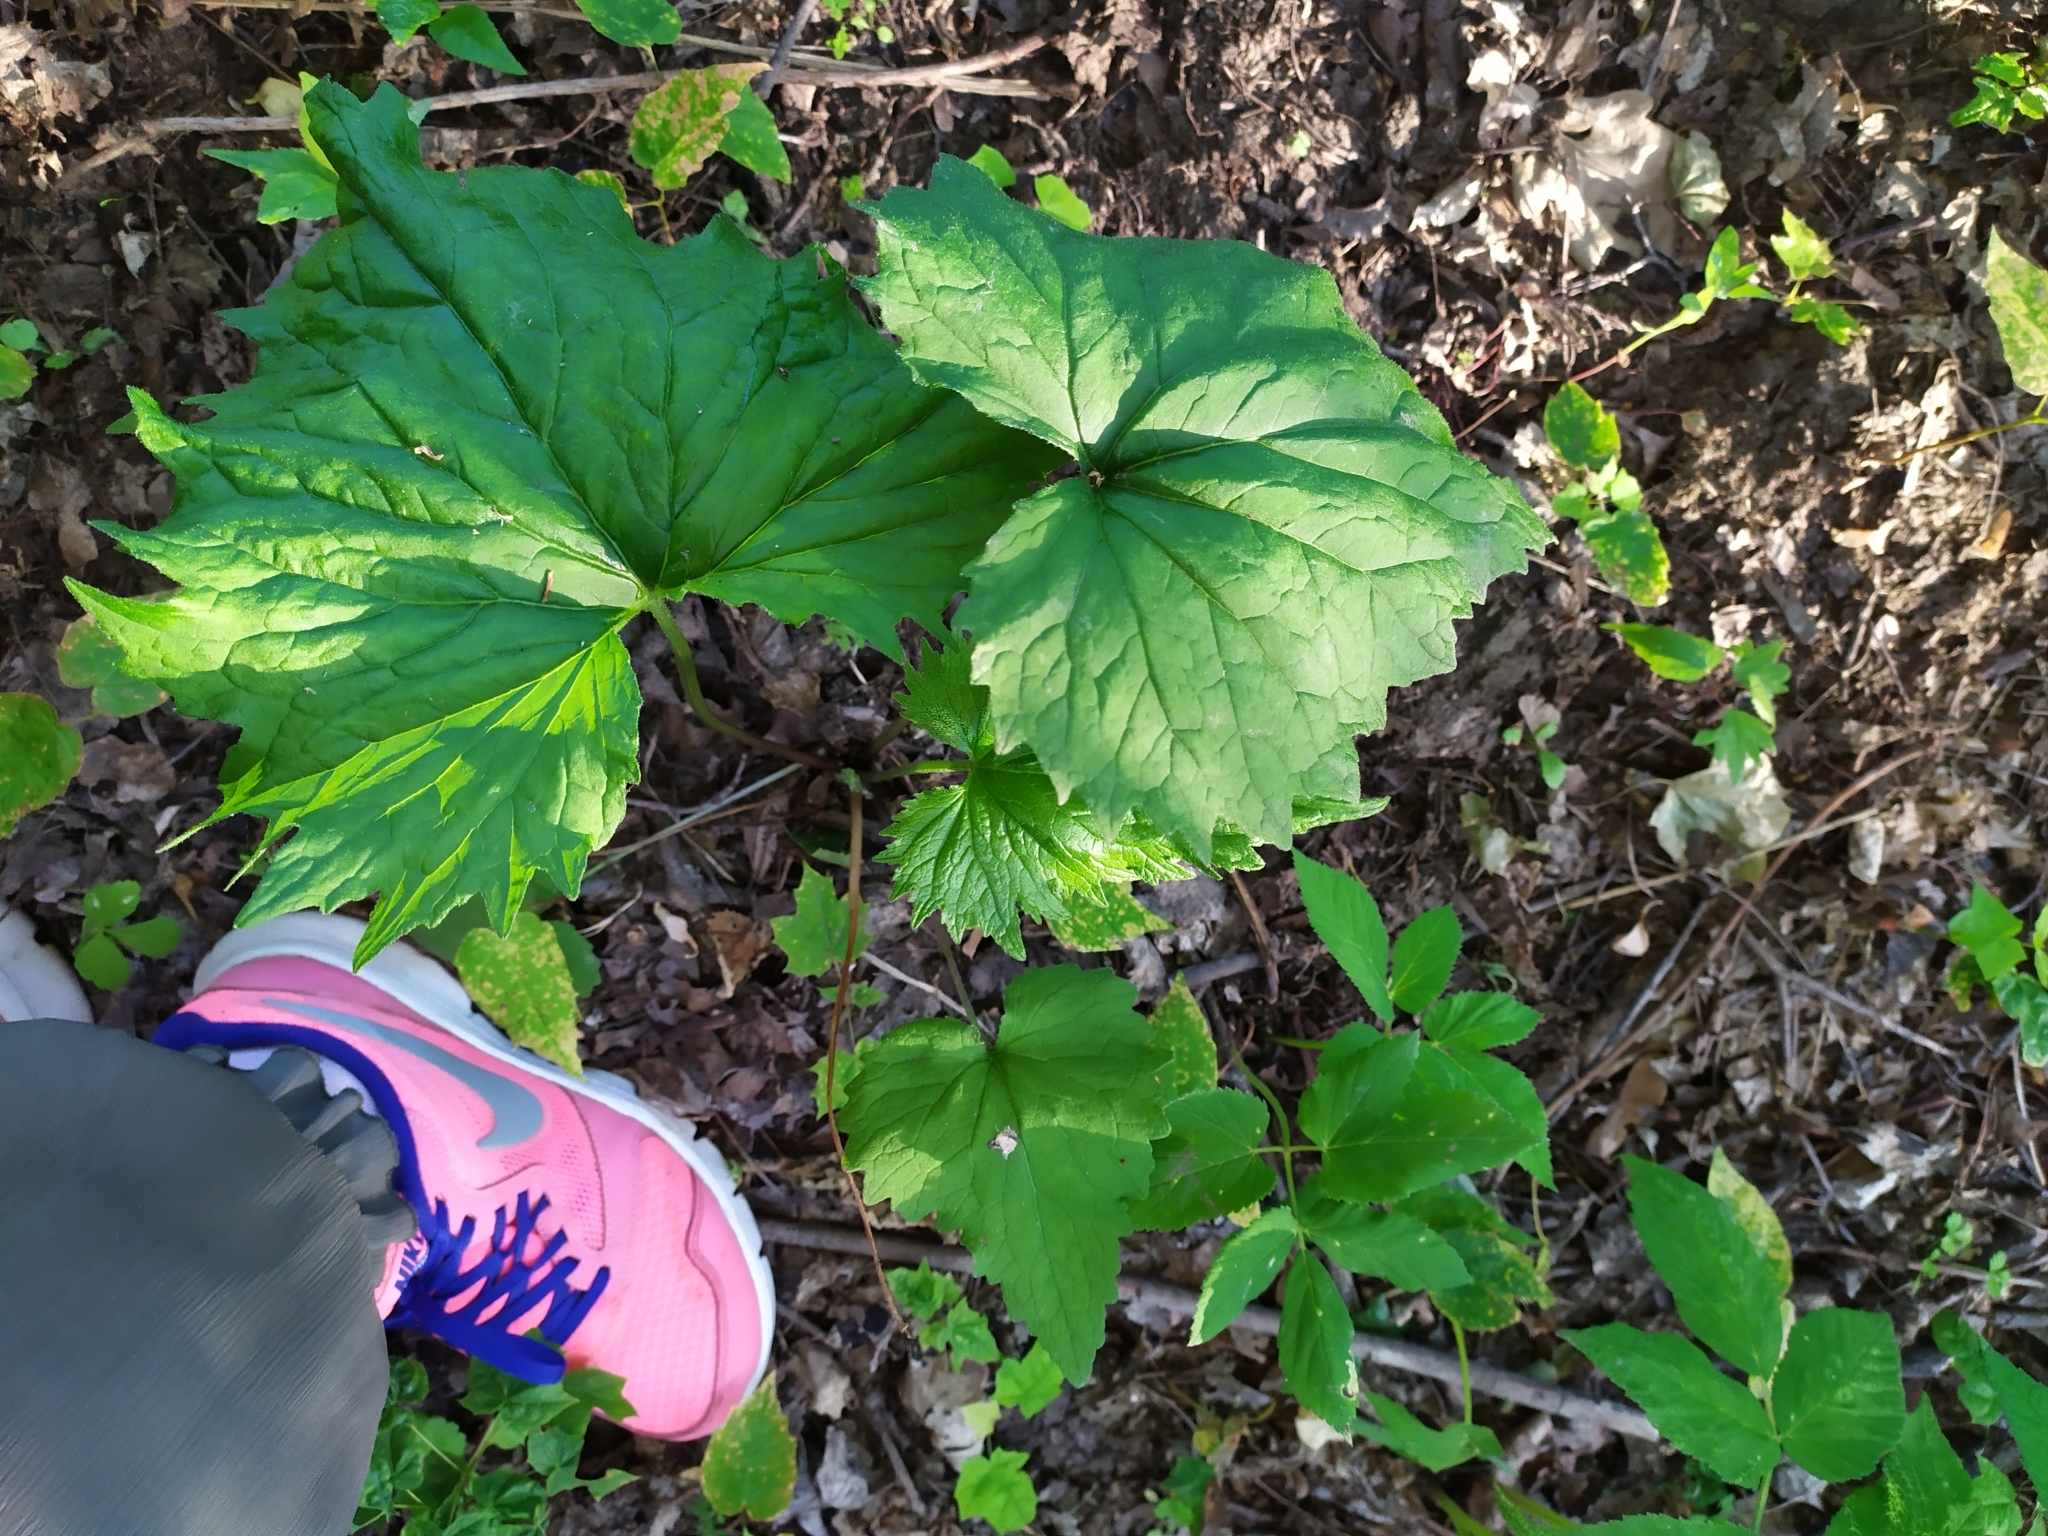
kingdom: Plantae
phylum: Tracheophyta
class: Magnoliopsida
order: Asterales
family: Campanulaceae
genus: Campanula
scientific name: Campanula trachelium
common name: Nettle-leaved bellflower
